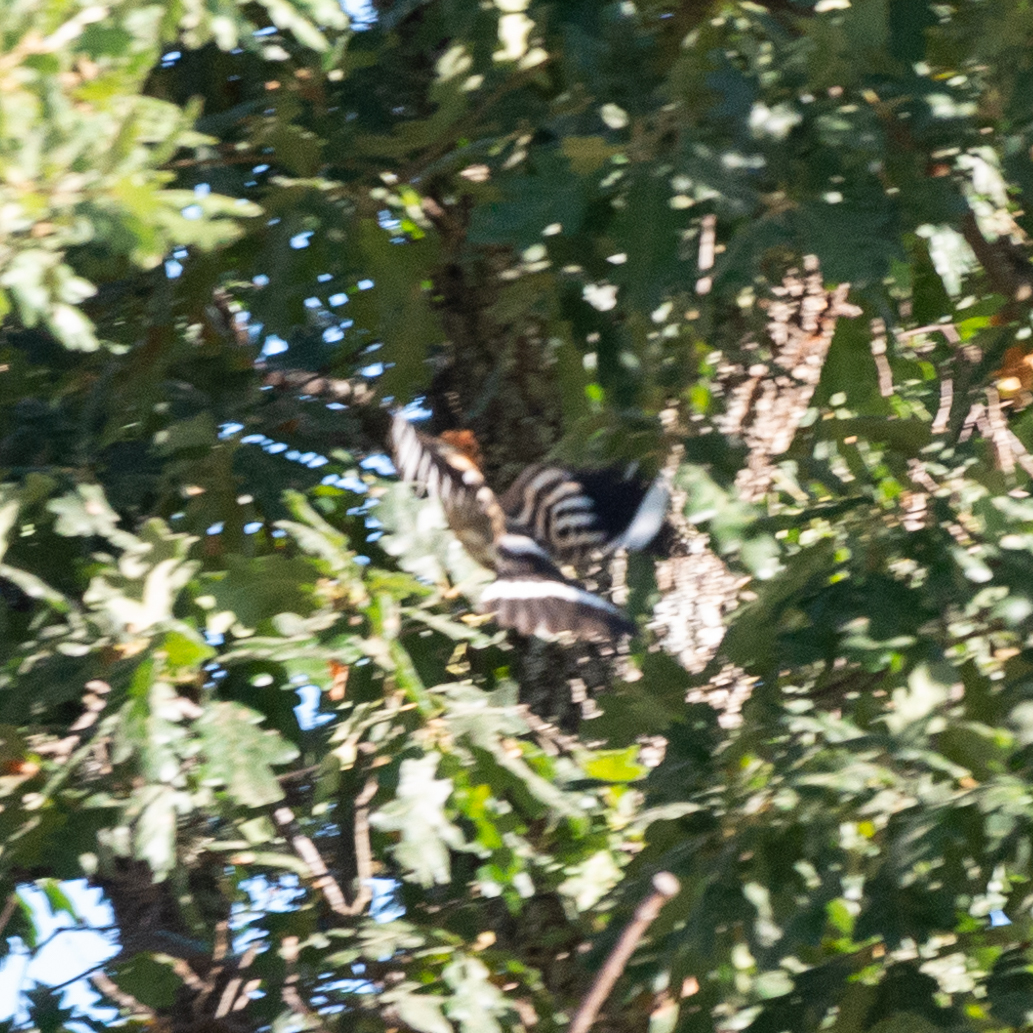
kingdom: Animalia
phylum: Chordata
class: Aves
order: Bucerotiformes
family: Upupidae
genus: Upupa
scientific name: Upupa epops
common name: Eurasian hoopoe
